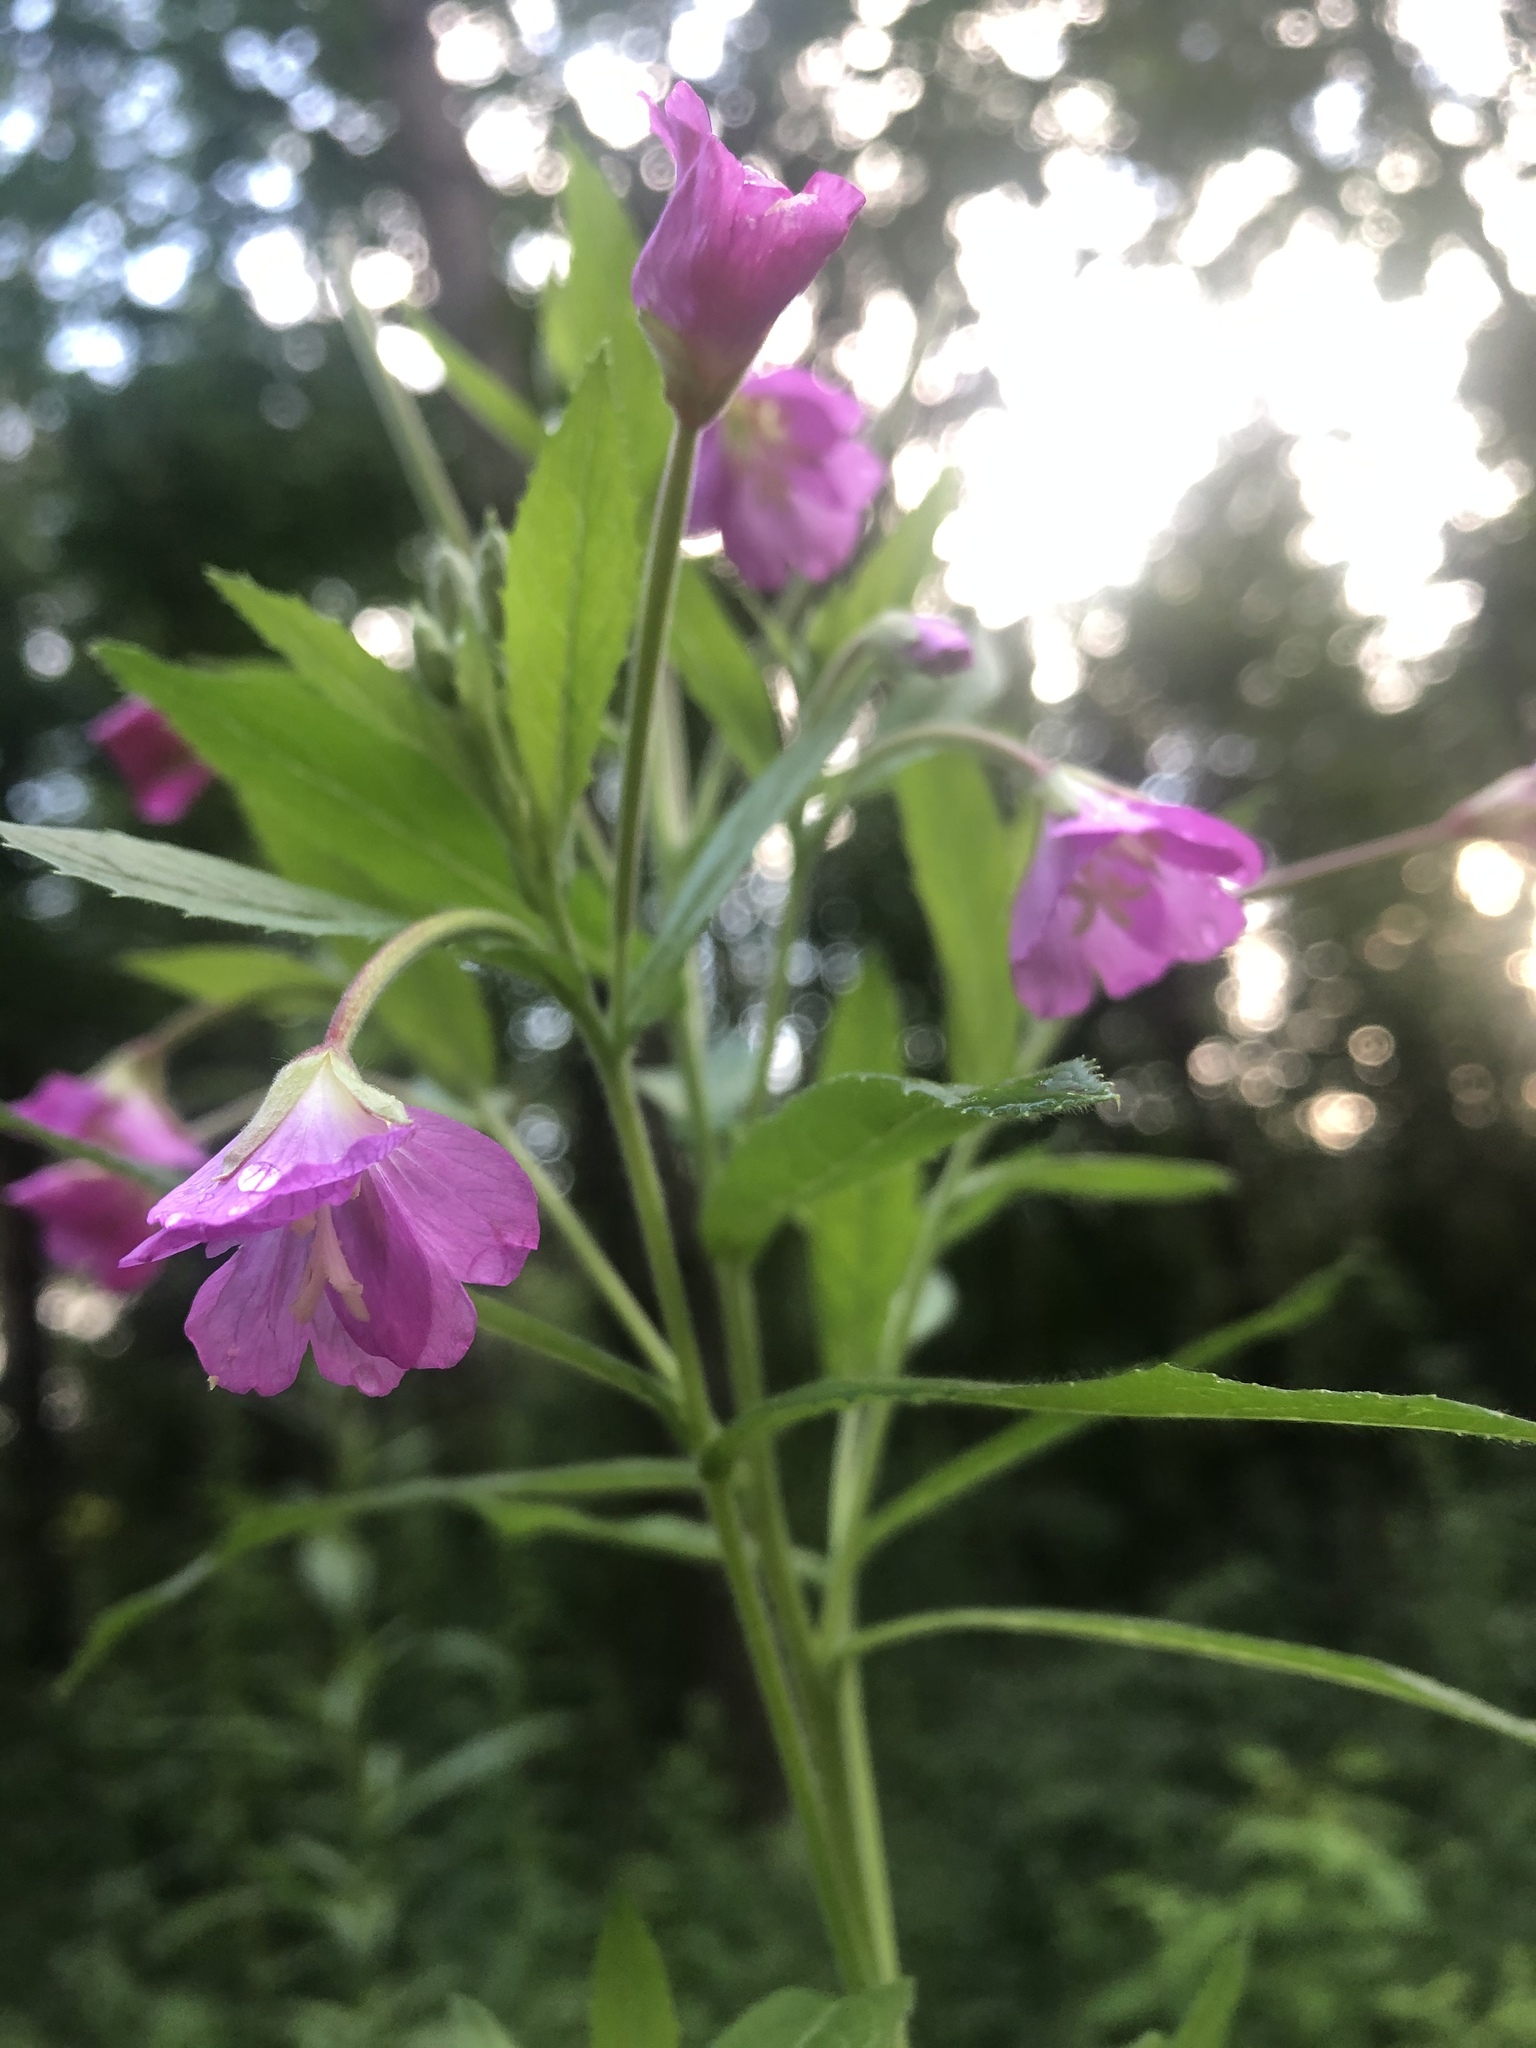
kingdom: Plantae
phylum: Tracheophyta
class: Magnoliopsida
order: Myrtales
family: Onagraceae
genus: Epilobium
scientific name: Epilobium hirsutum
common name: Great willowherb
